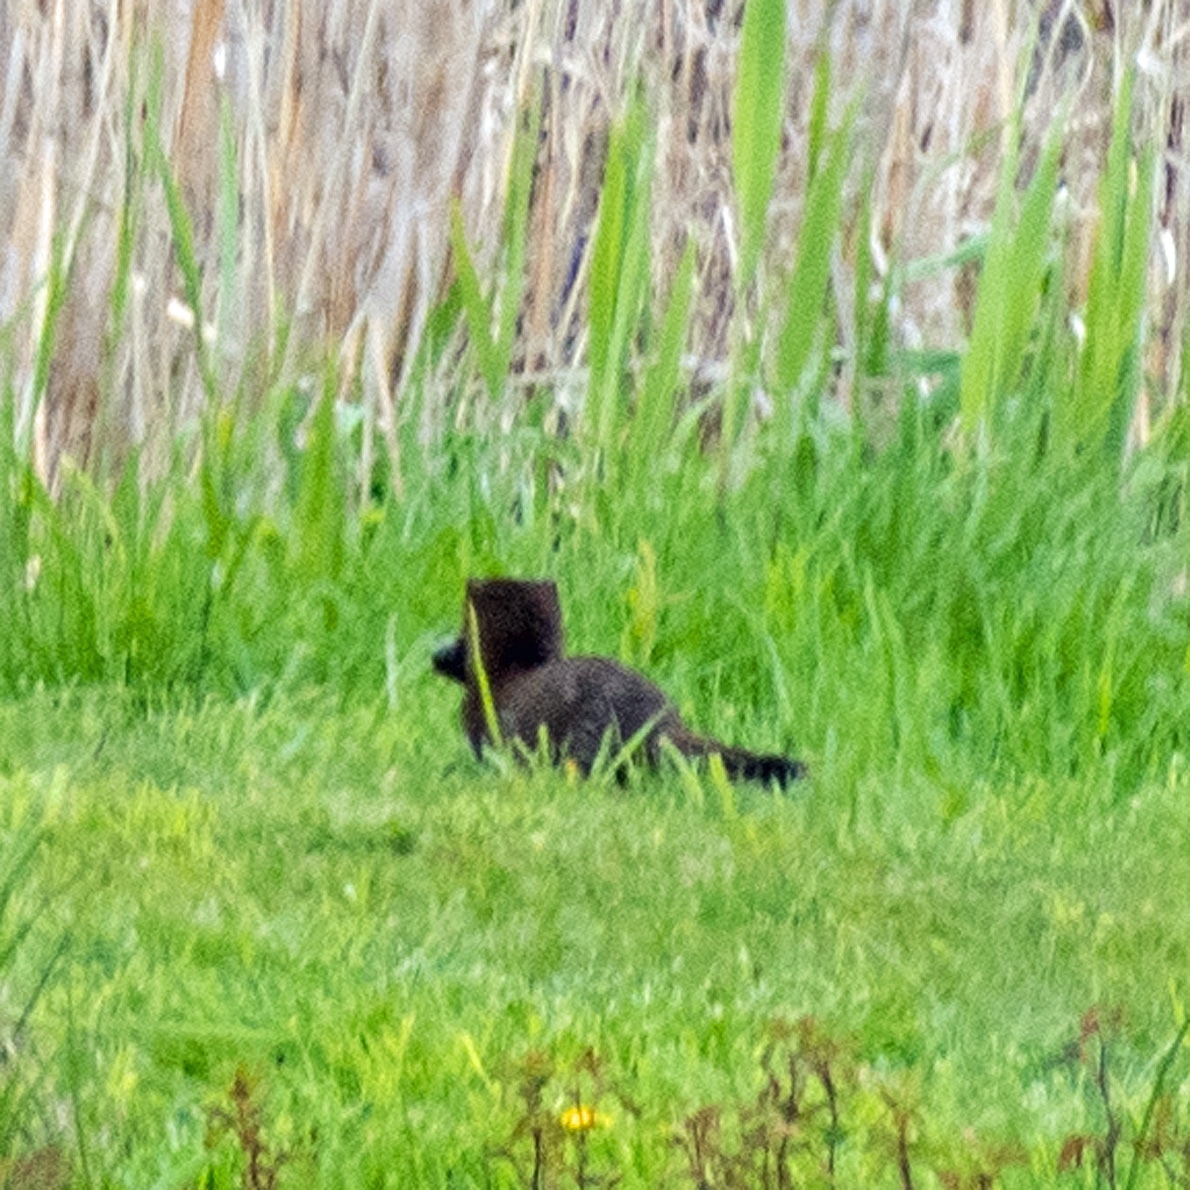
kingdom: Animalia
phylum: Chordata
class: Mammalia
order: Carnivora
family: Mustelidae
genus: Mustela
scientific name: Mustela
